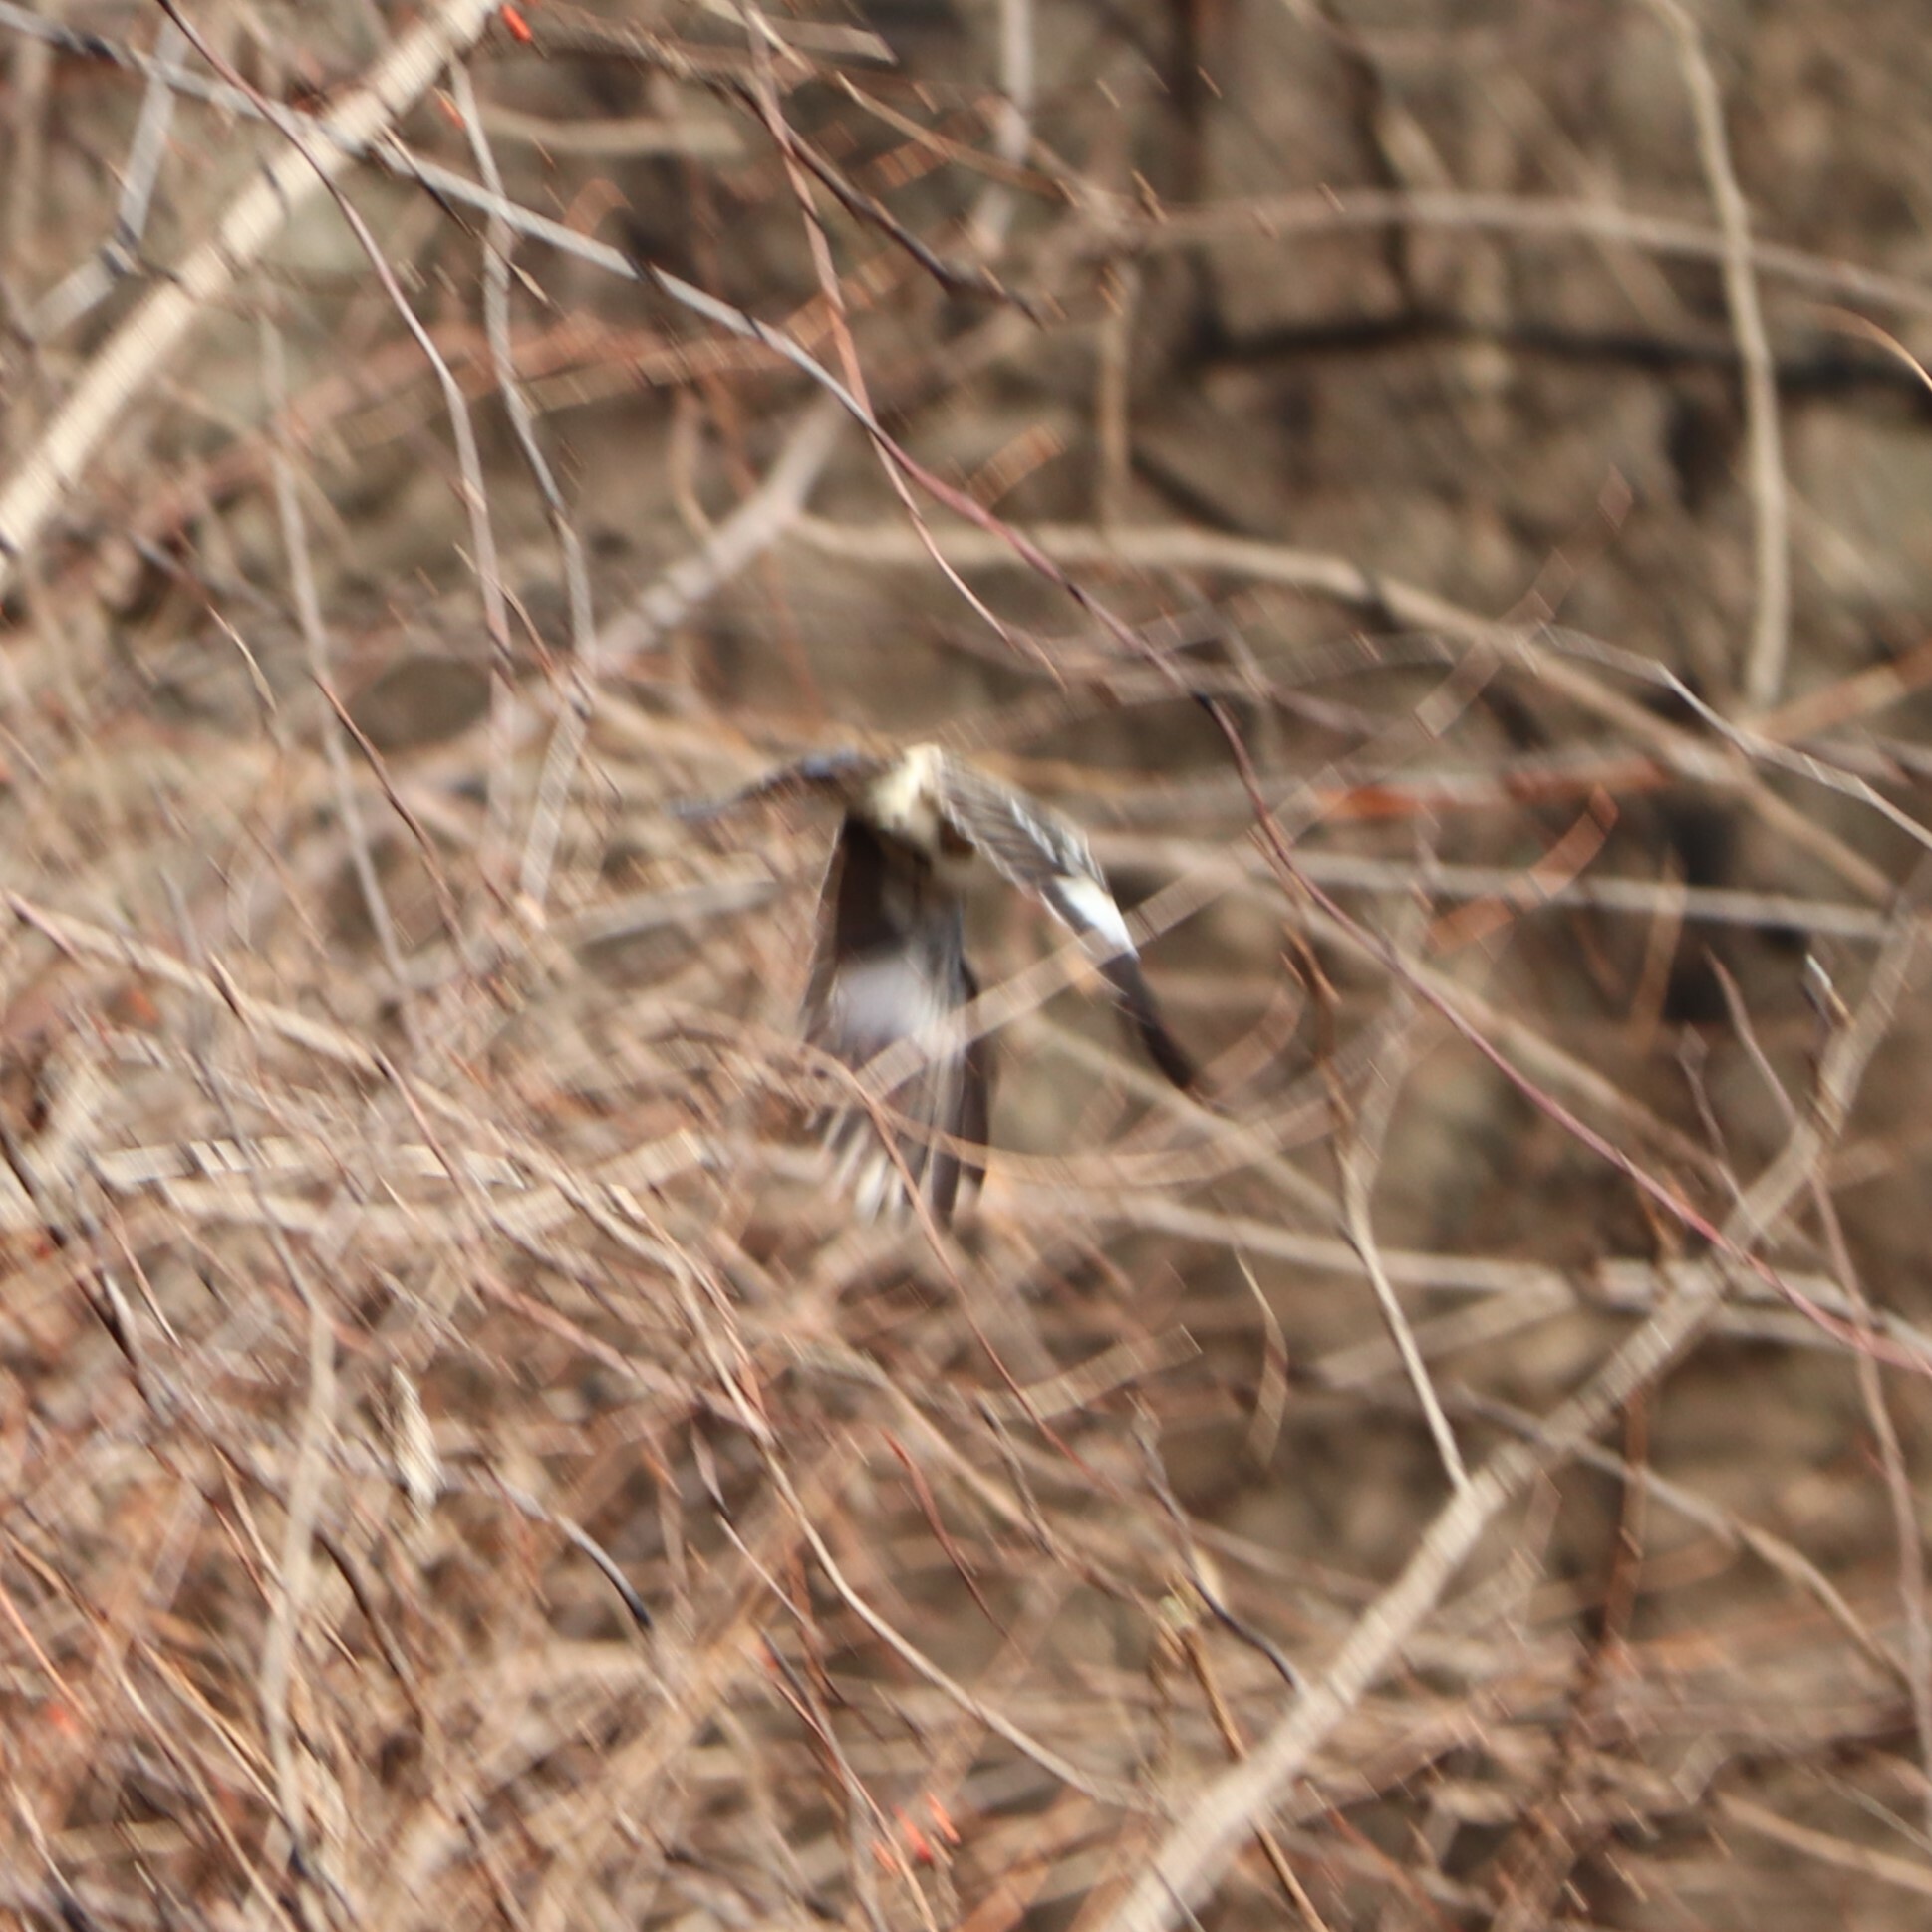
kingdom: Animalia
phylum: Chordata
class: Aves
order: Passeriformes
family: Mimidae
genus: Mimus
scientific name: Mimus polyglottos
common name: Northern mockingbird
